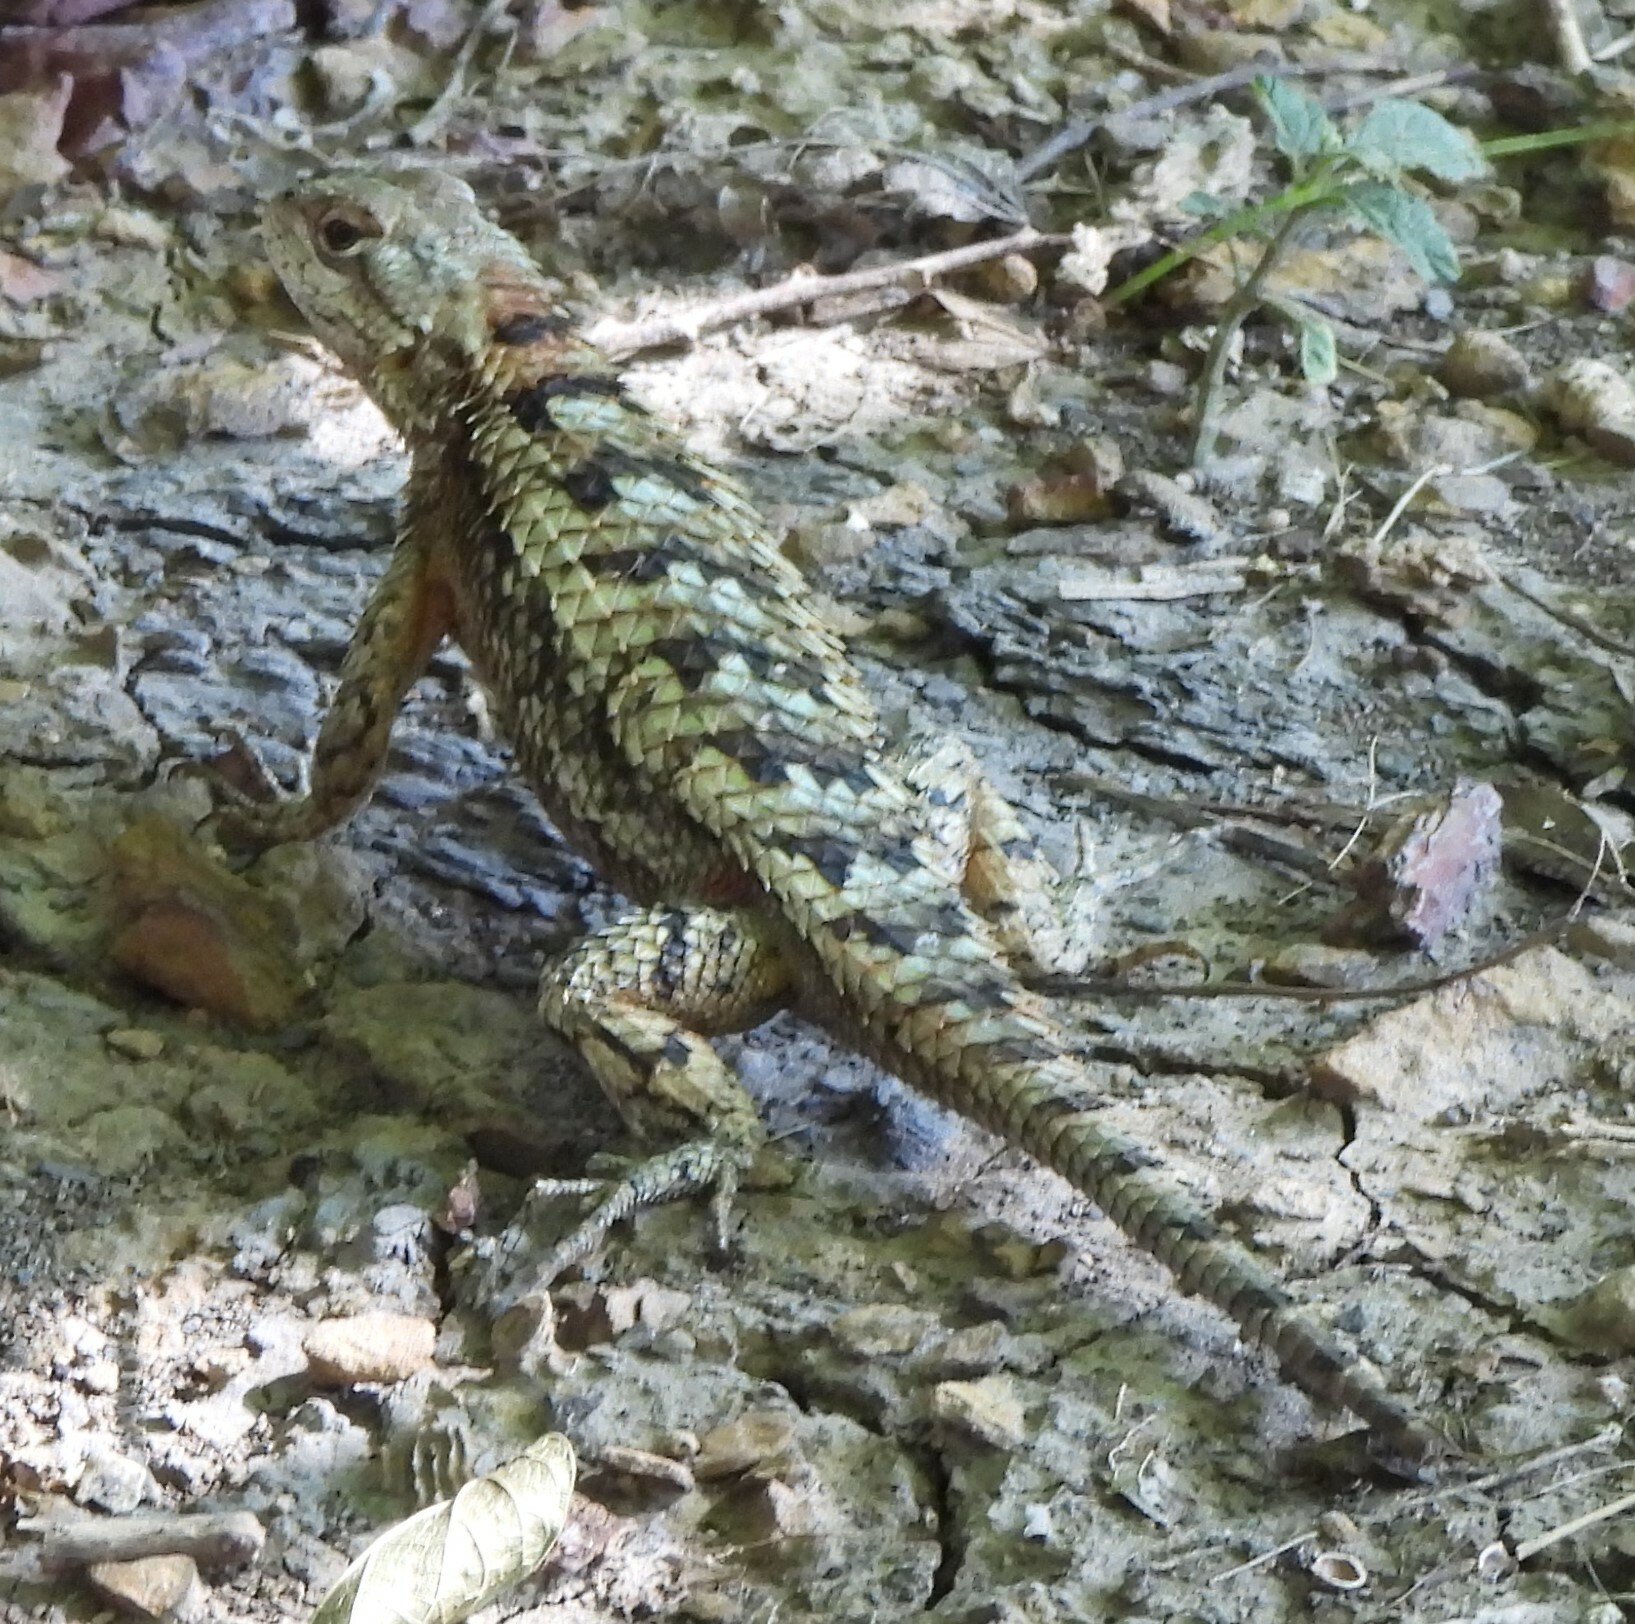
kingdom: Animalia
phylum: Chordata
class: Squamata
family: Phrynosomatidae
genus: Sceloporus
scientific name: Sceloporus olivaceus
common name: Texas spiny lizard
